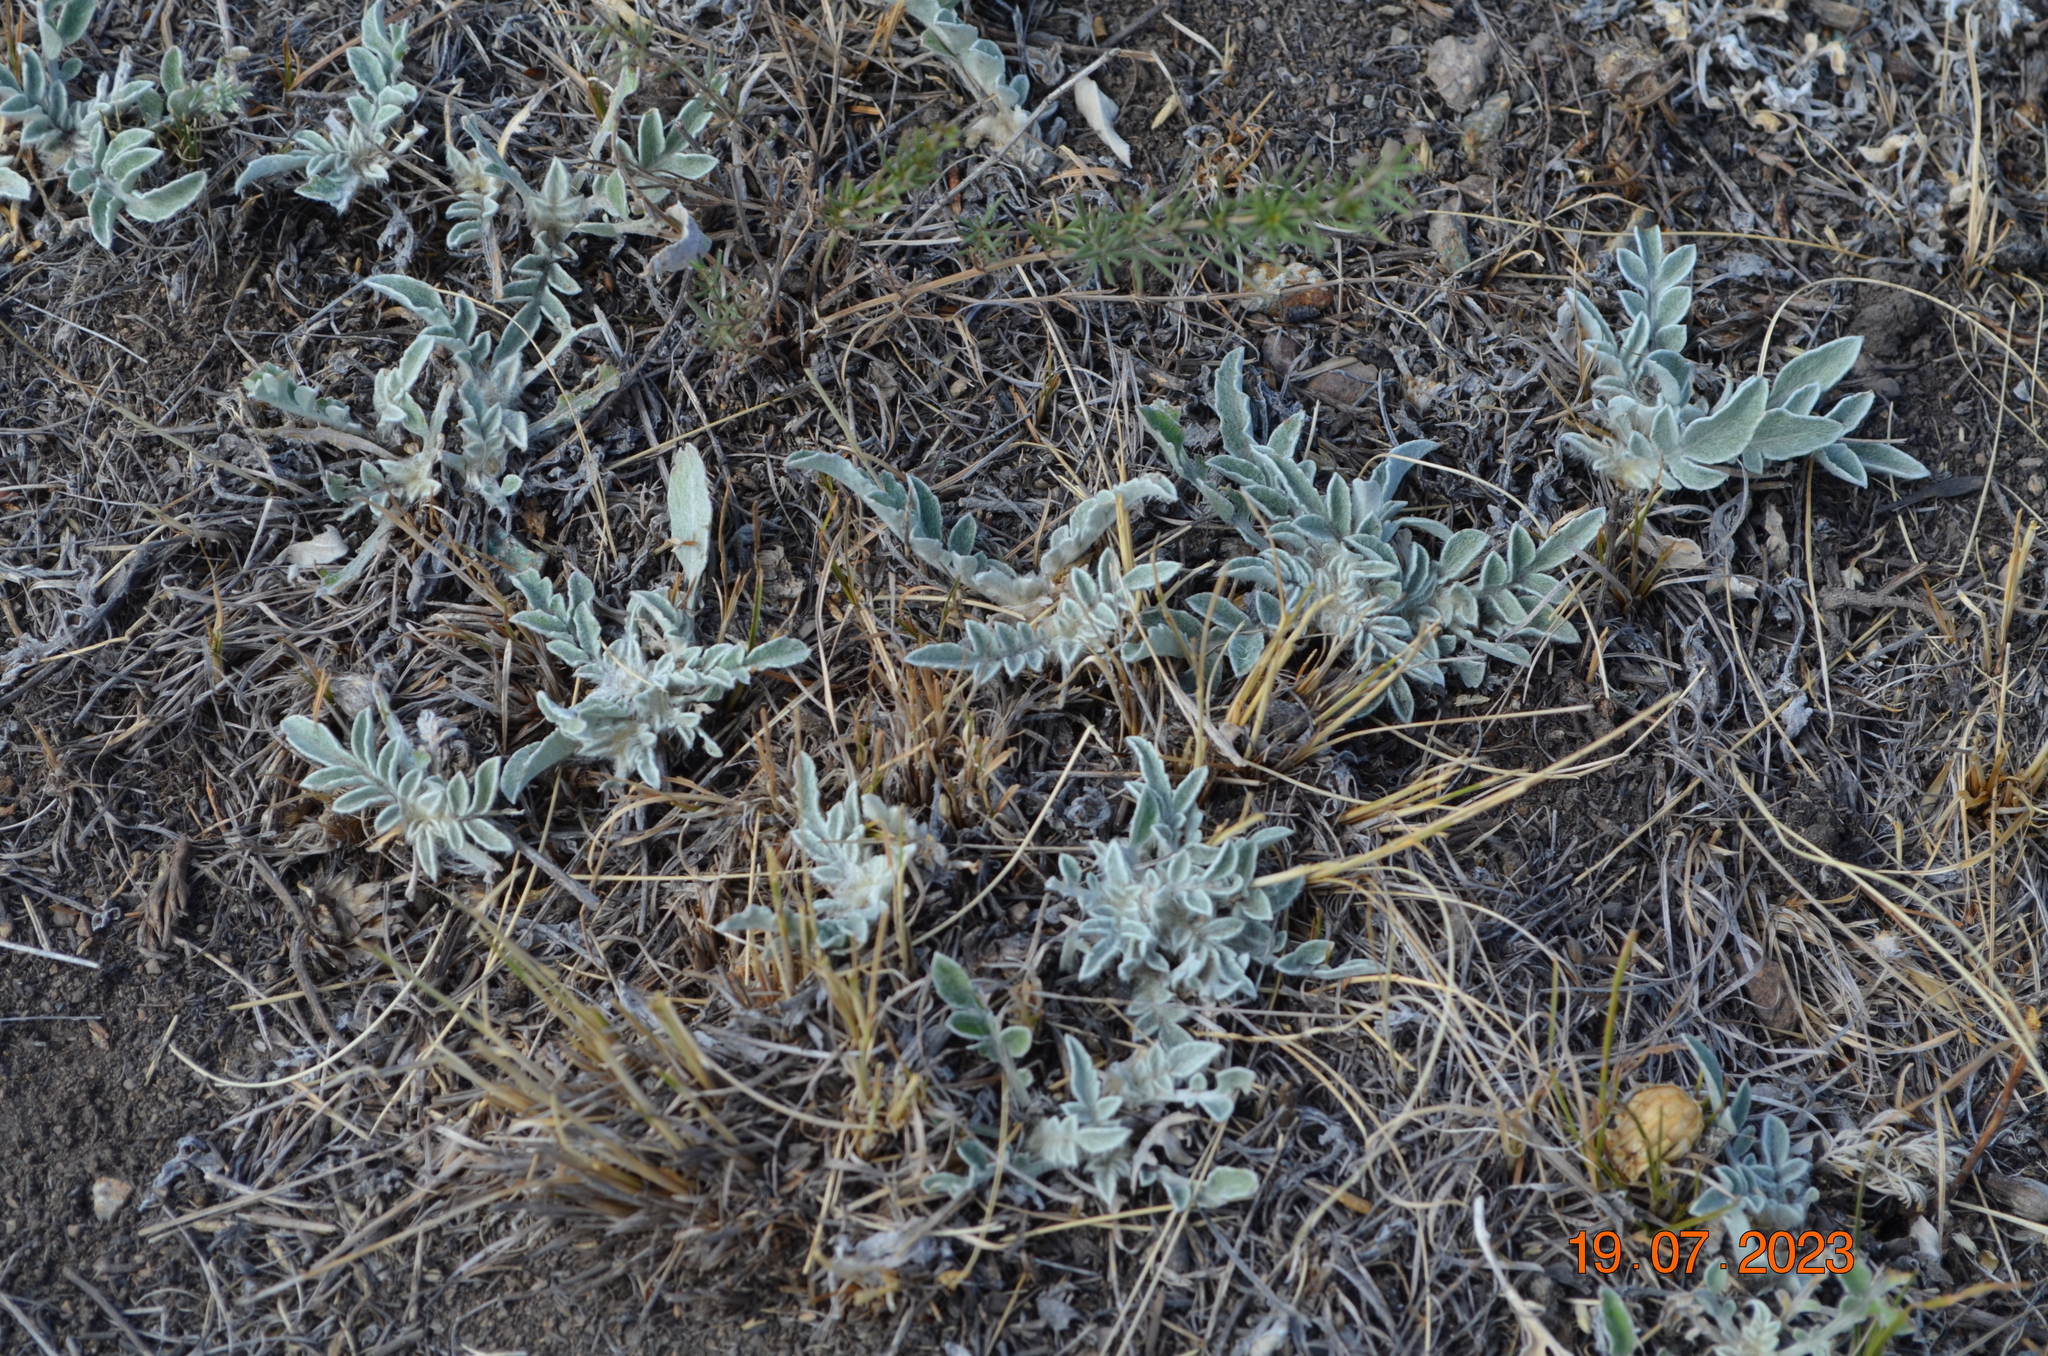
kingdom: Plantae
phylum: Tracheophyta
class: Magnoliopsida
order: Asterales
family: Asteraceae
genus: Psephellus
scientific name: Psephellus sibiricus
